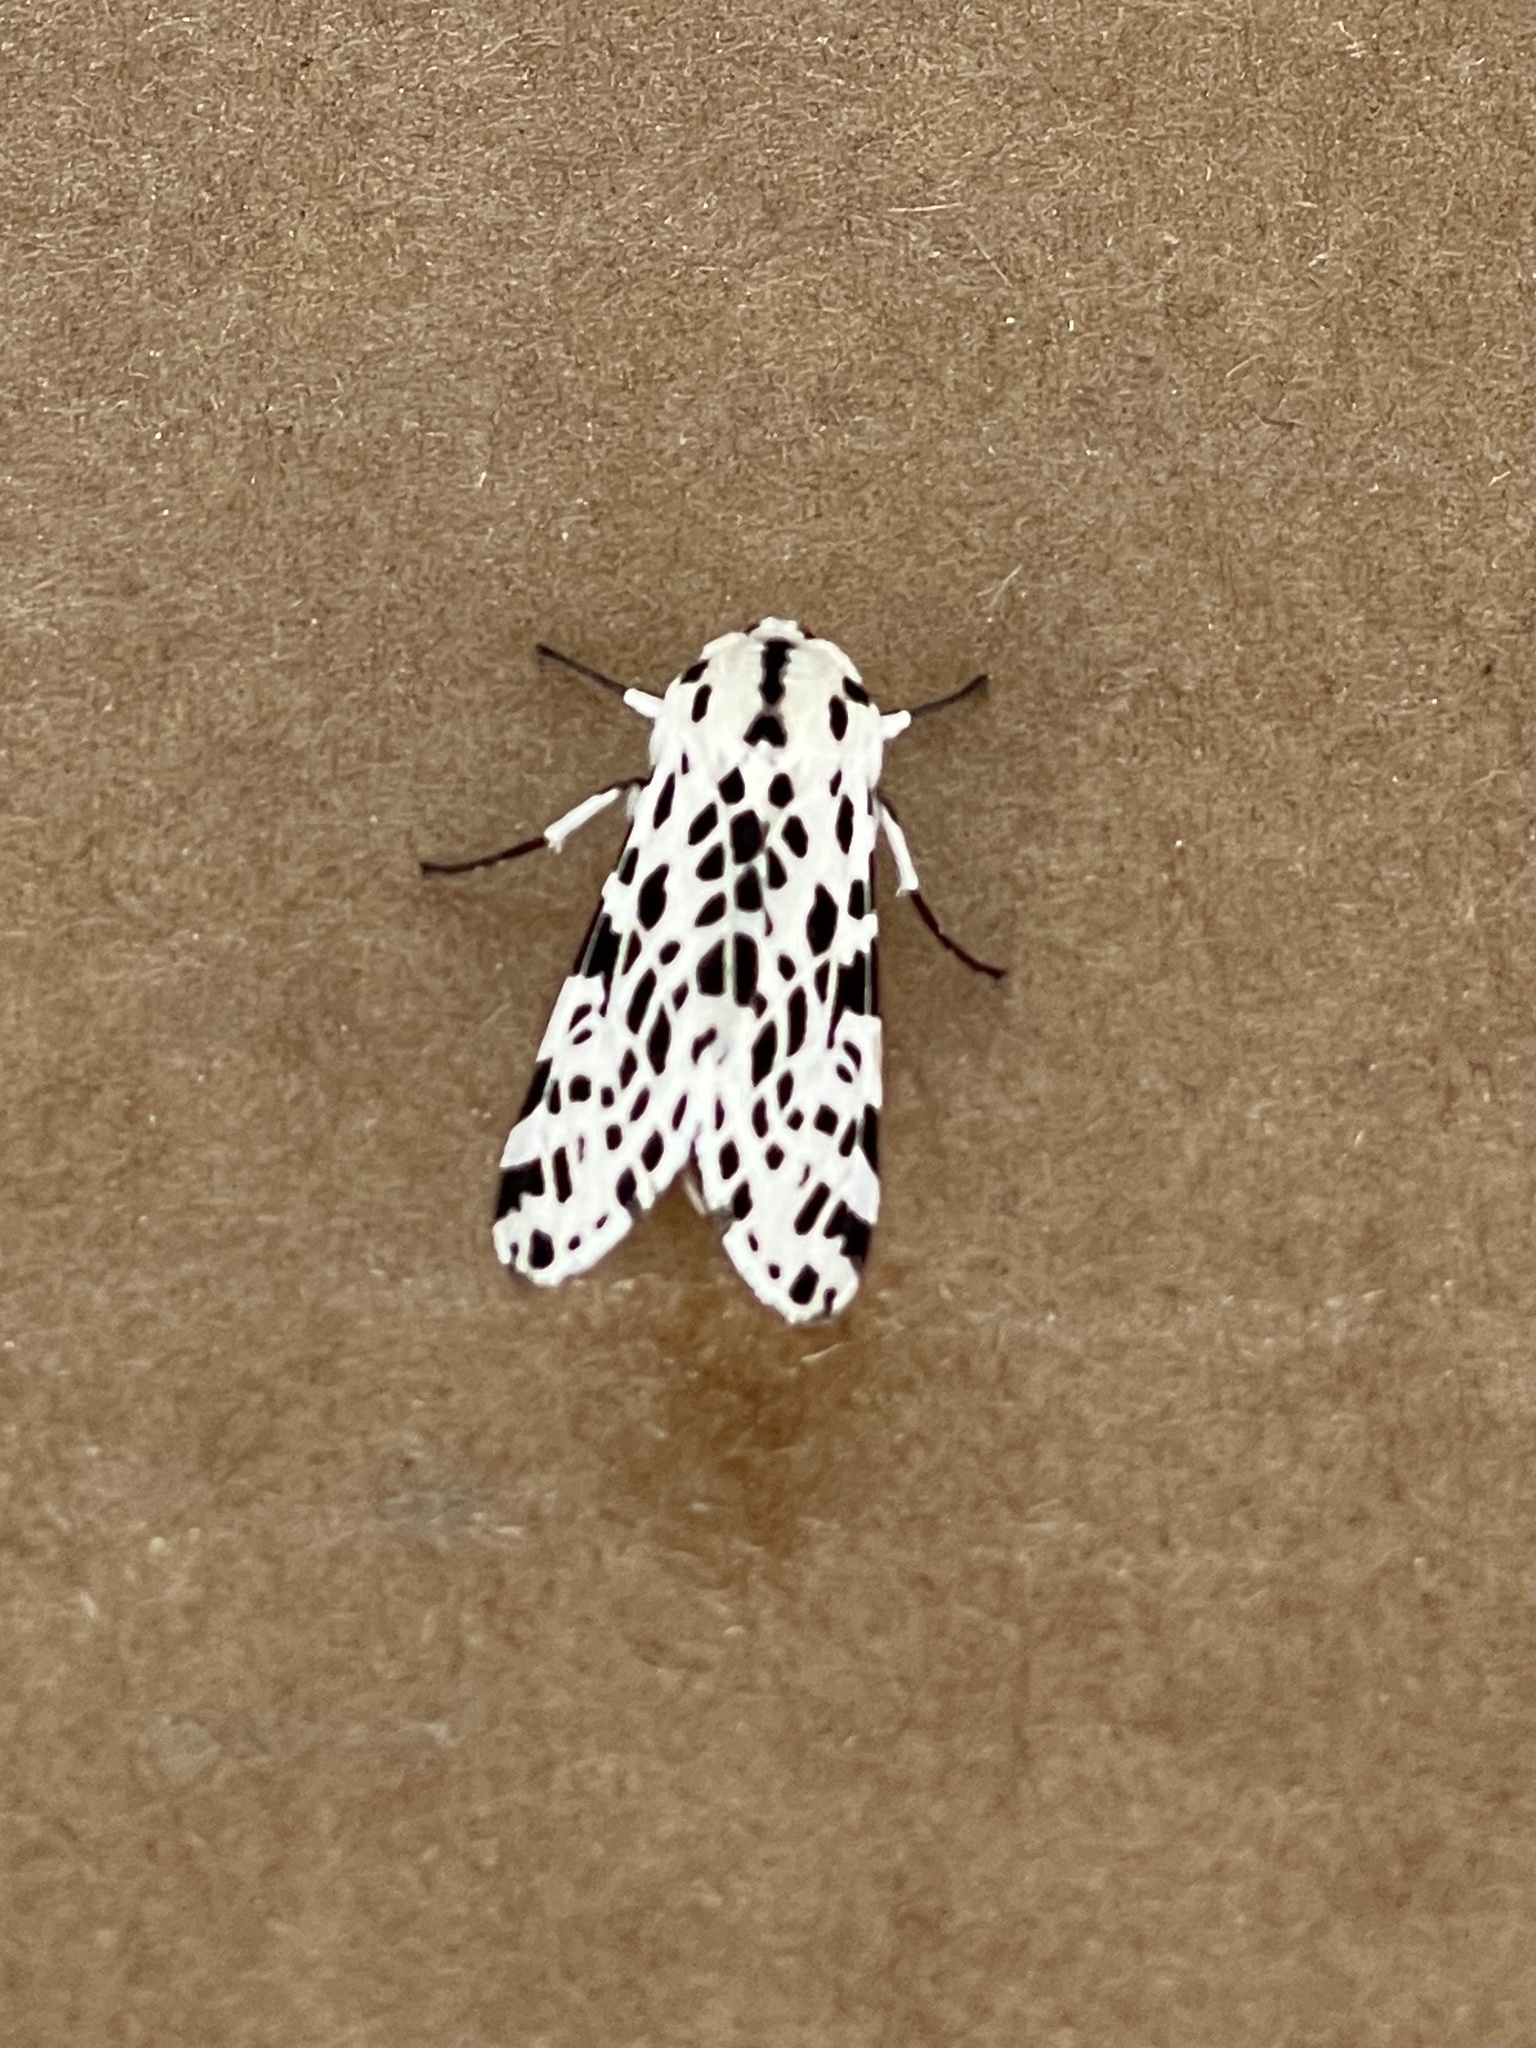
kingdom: Animalia
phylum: Arthropoda
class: Insecta
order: Lepidoptera
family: Erebidae
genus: Hypercompe
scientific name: Hypercompe permaculata
